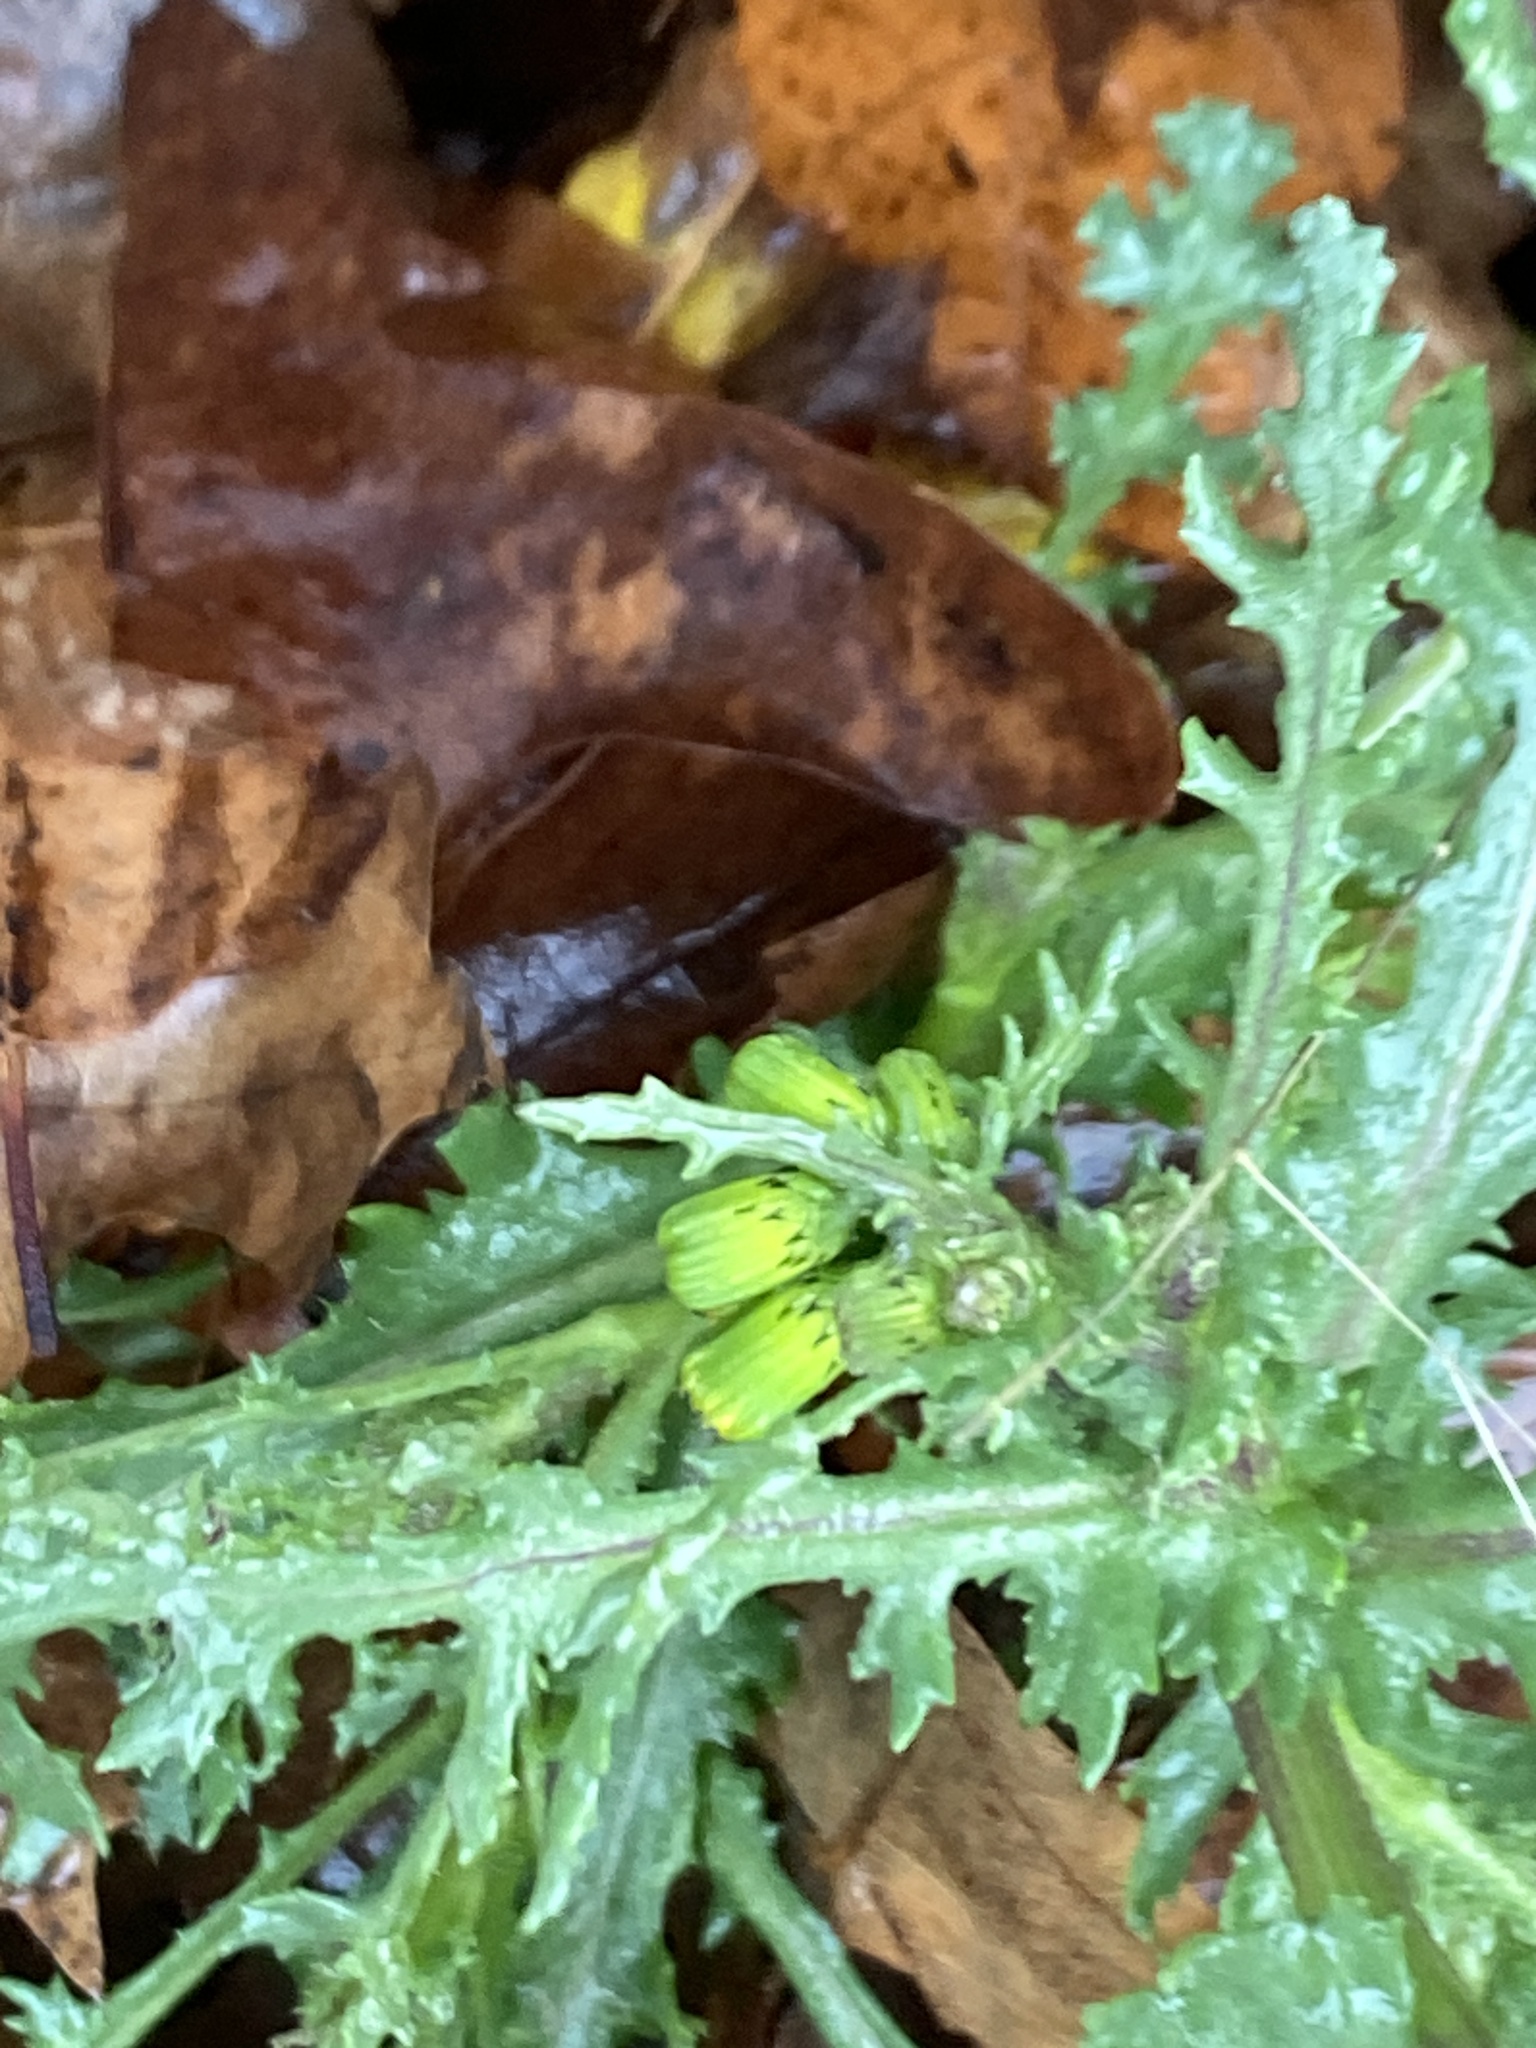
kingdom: Plantae
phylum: Tracheophyta
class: Magnoliopsida
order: Asterales
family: Asteraceae
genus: Senecio
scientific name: Senecio vulgaris
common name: Old-man-in-the-spring
